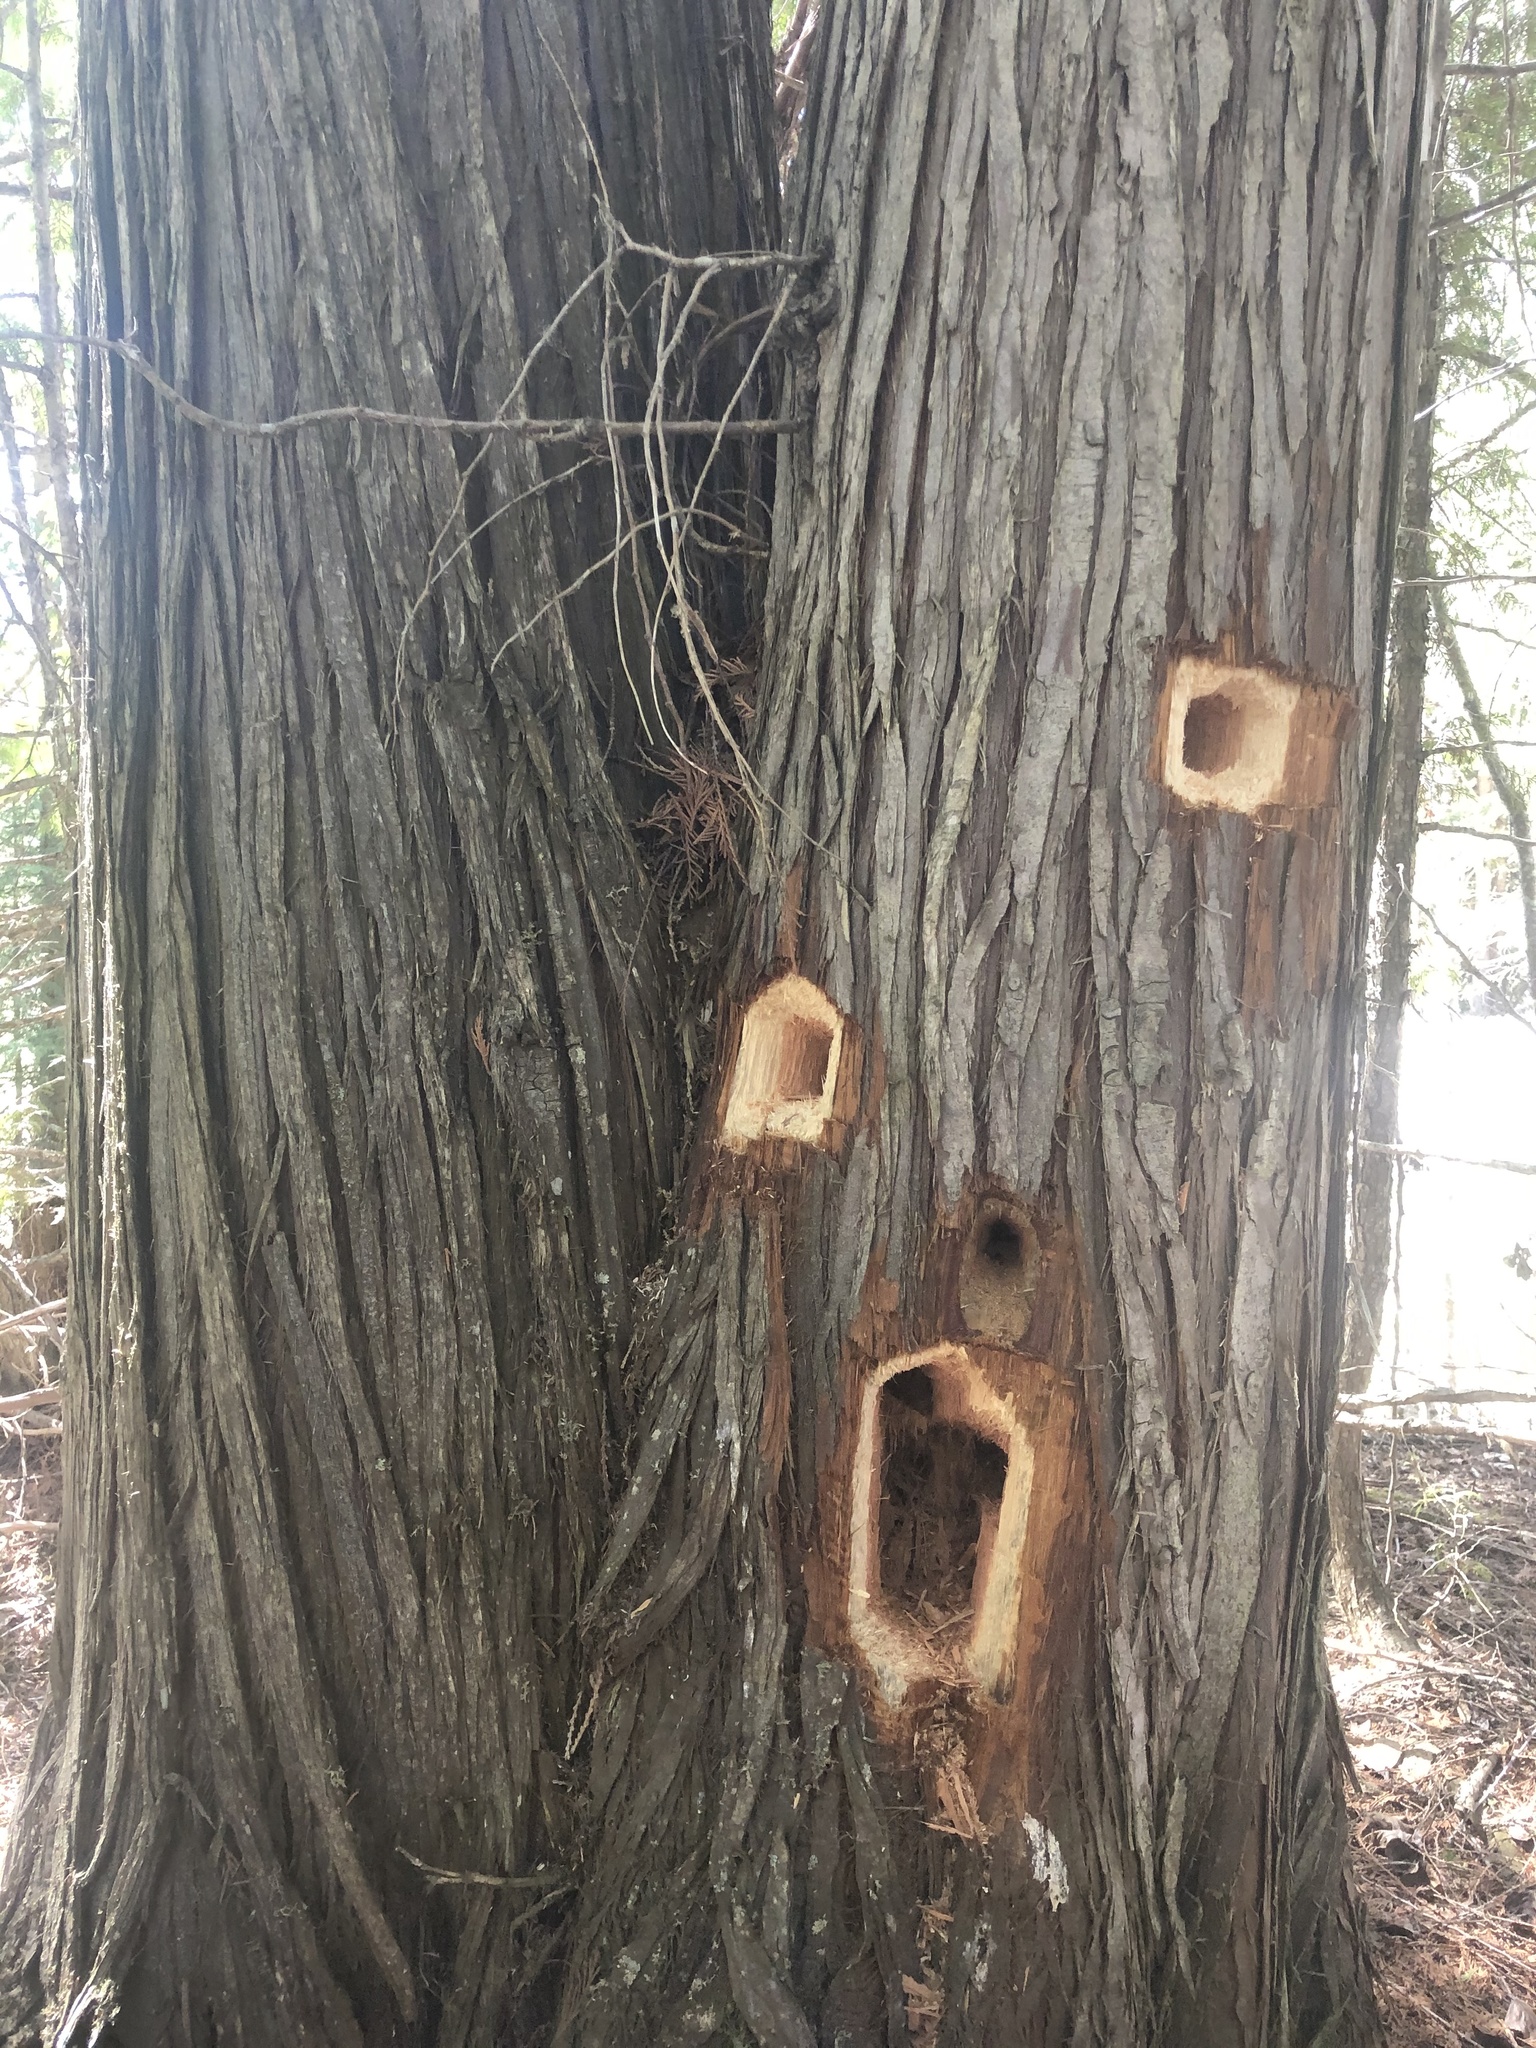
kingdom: Animalia
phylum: Chordata
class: Aves
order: Piciformes
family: Picidae
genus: Dryocopus
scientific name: Dryocopus pileatus
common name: Pileated woodpecker
